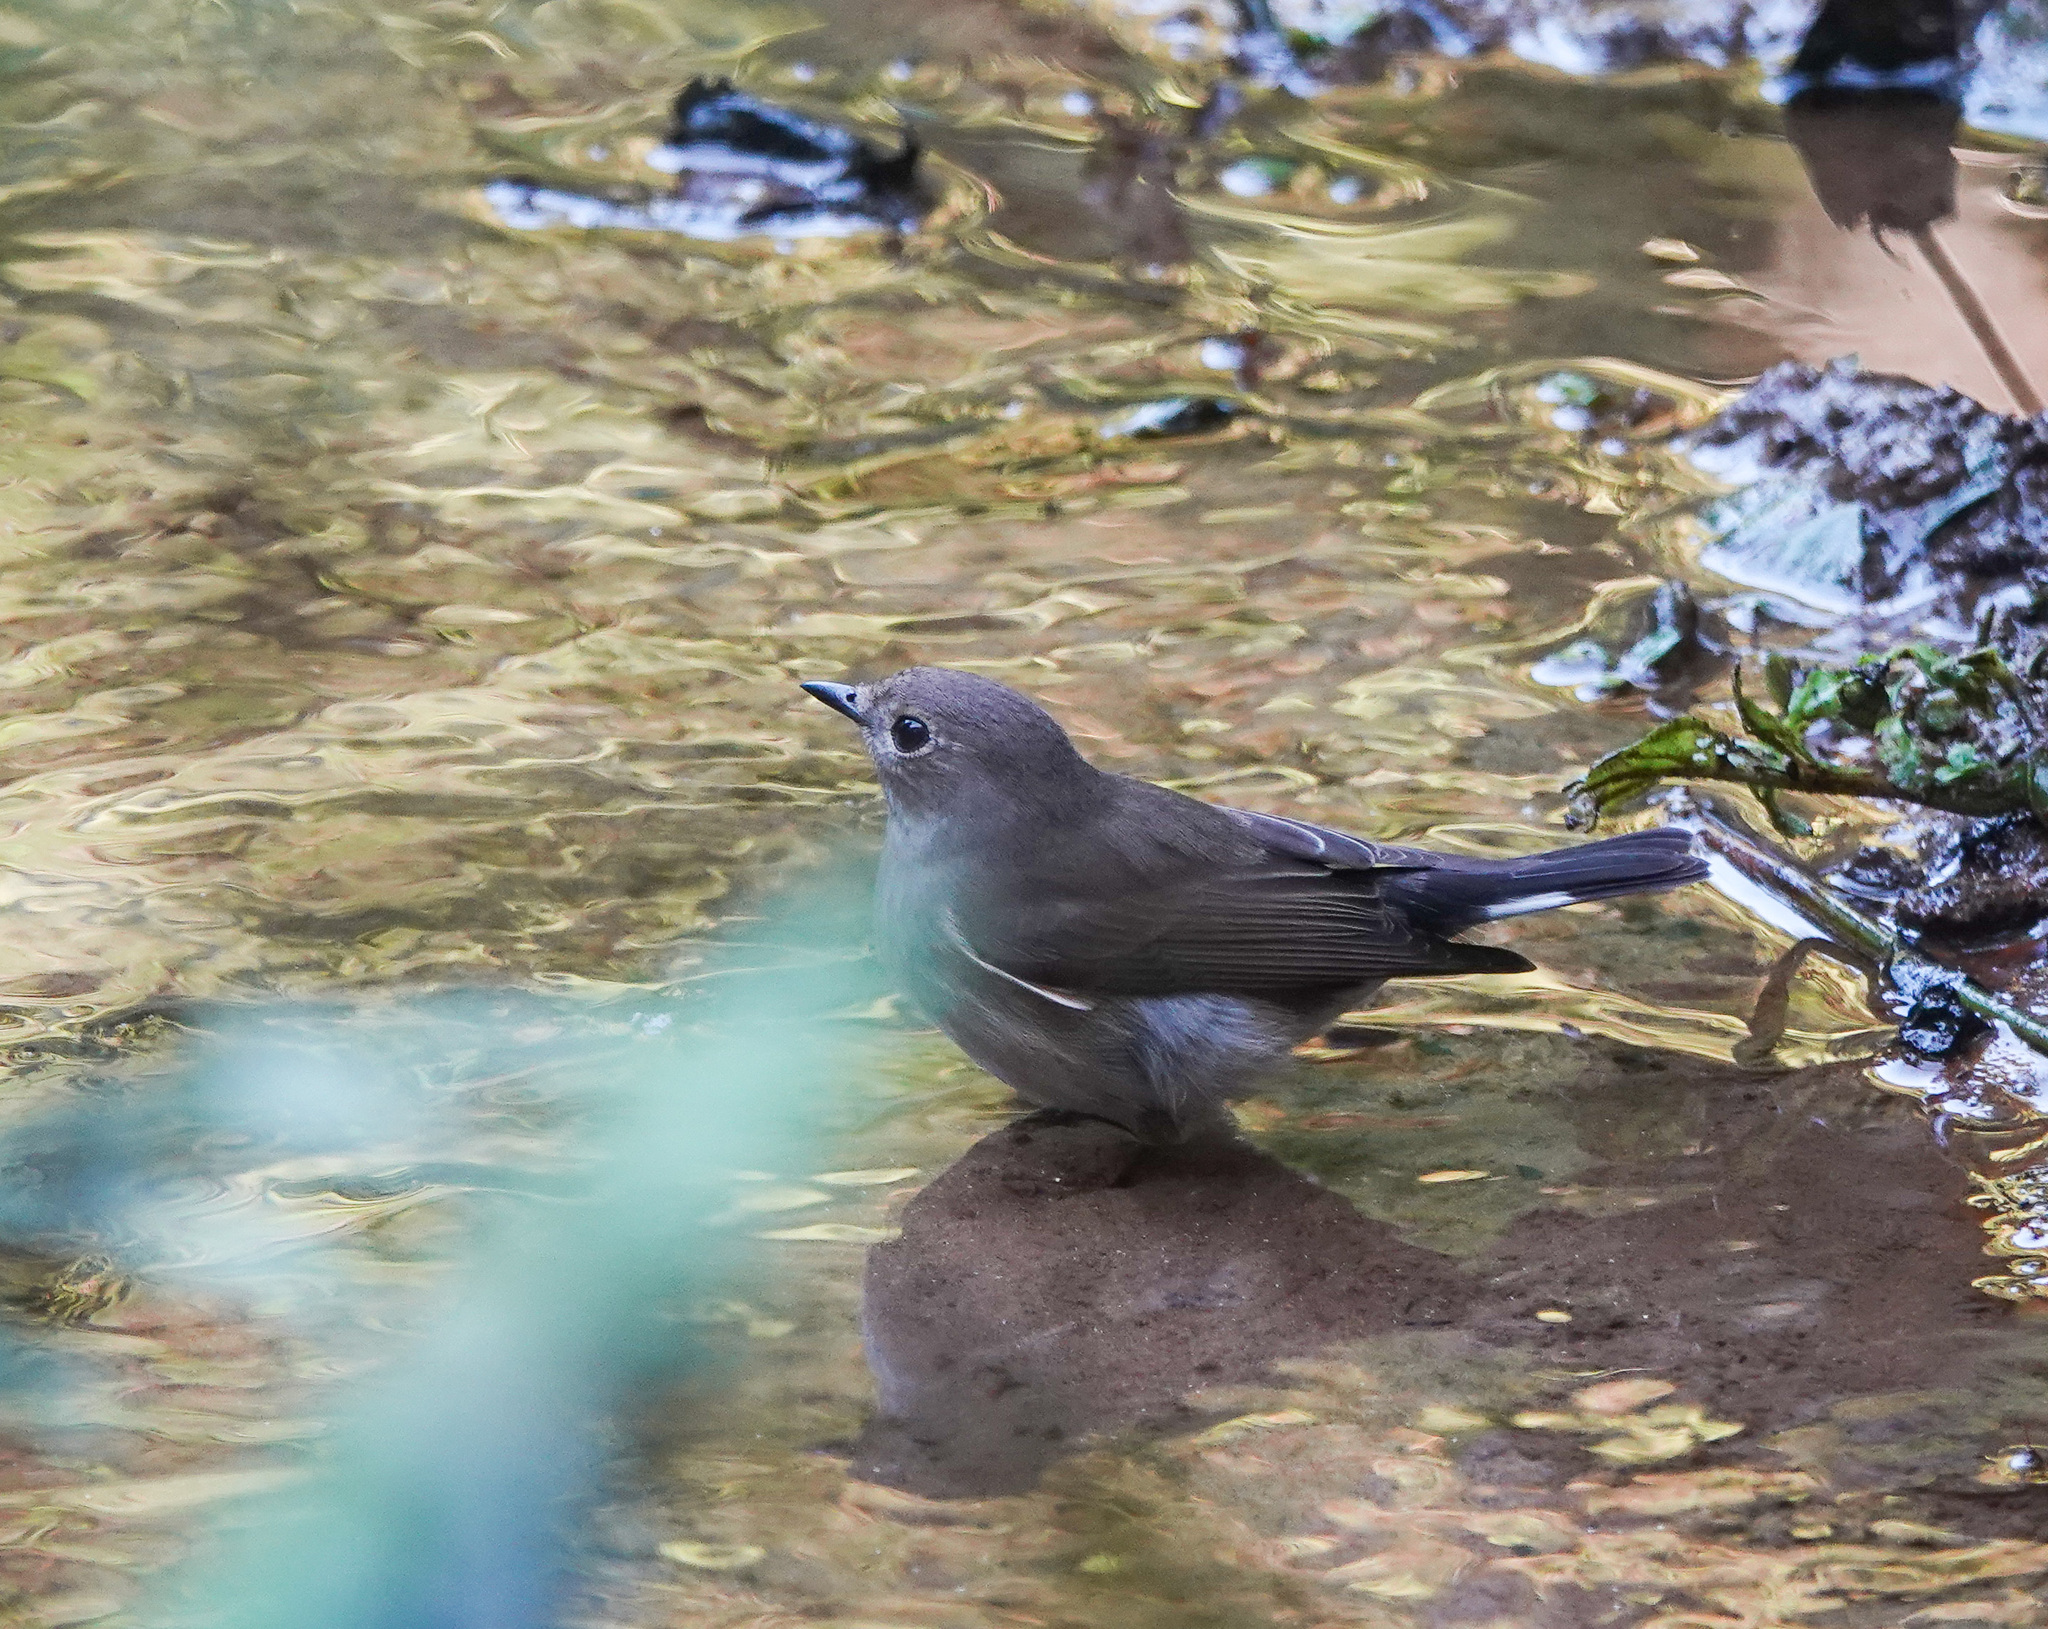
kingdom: Animalia
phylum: Chordata
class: Aves
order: Passeriformes
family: Muscicapidae
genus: Ficedula
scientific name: Ficedula albicilla
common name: Taiga flycatcher
